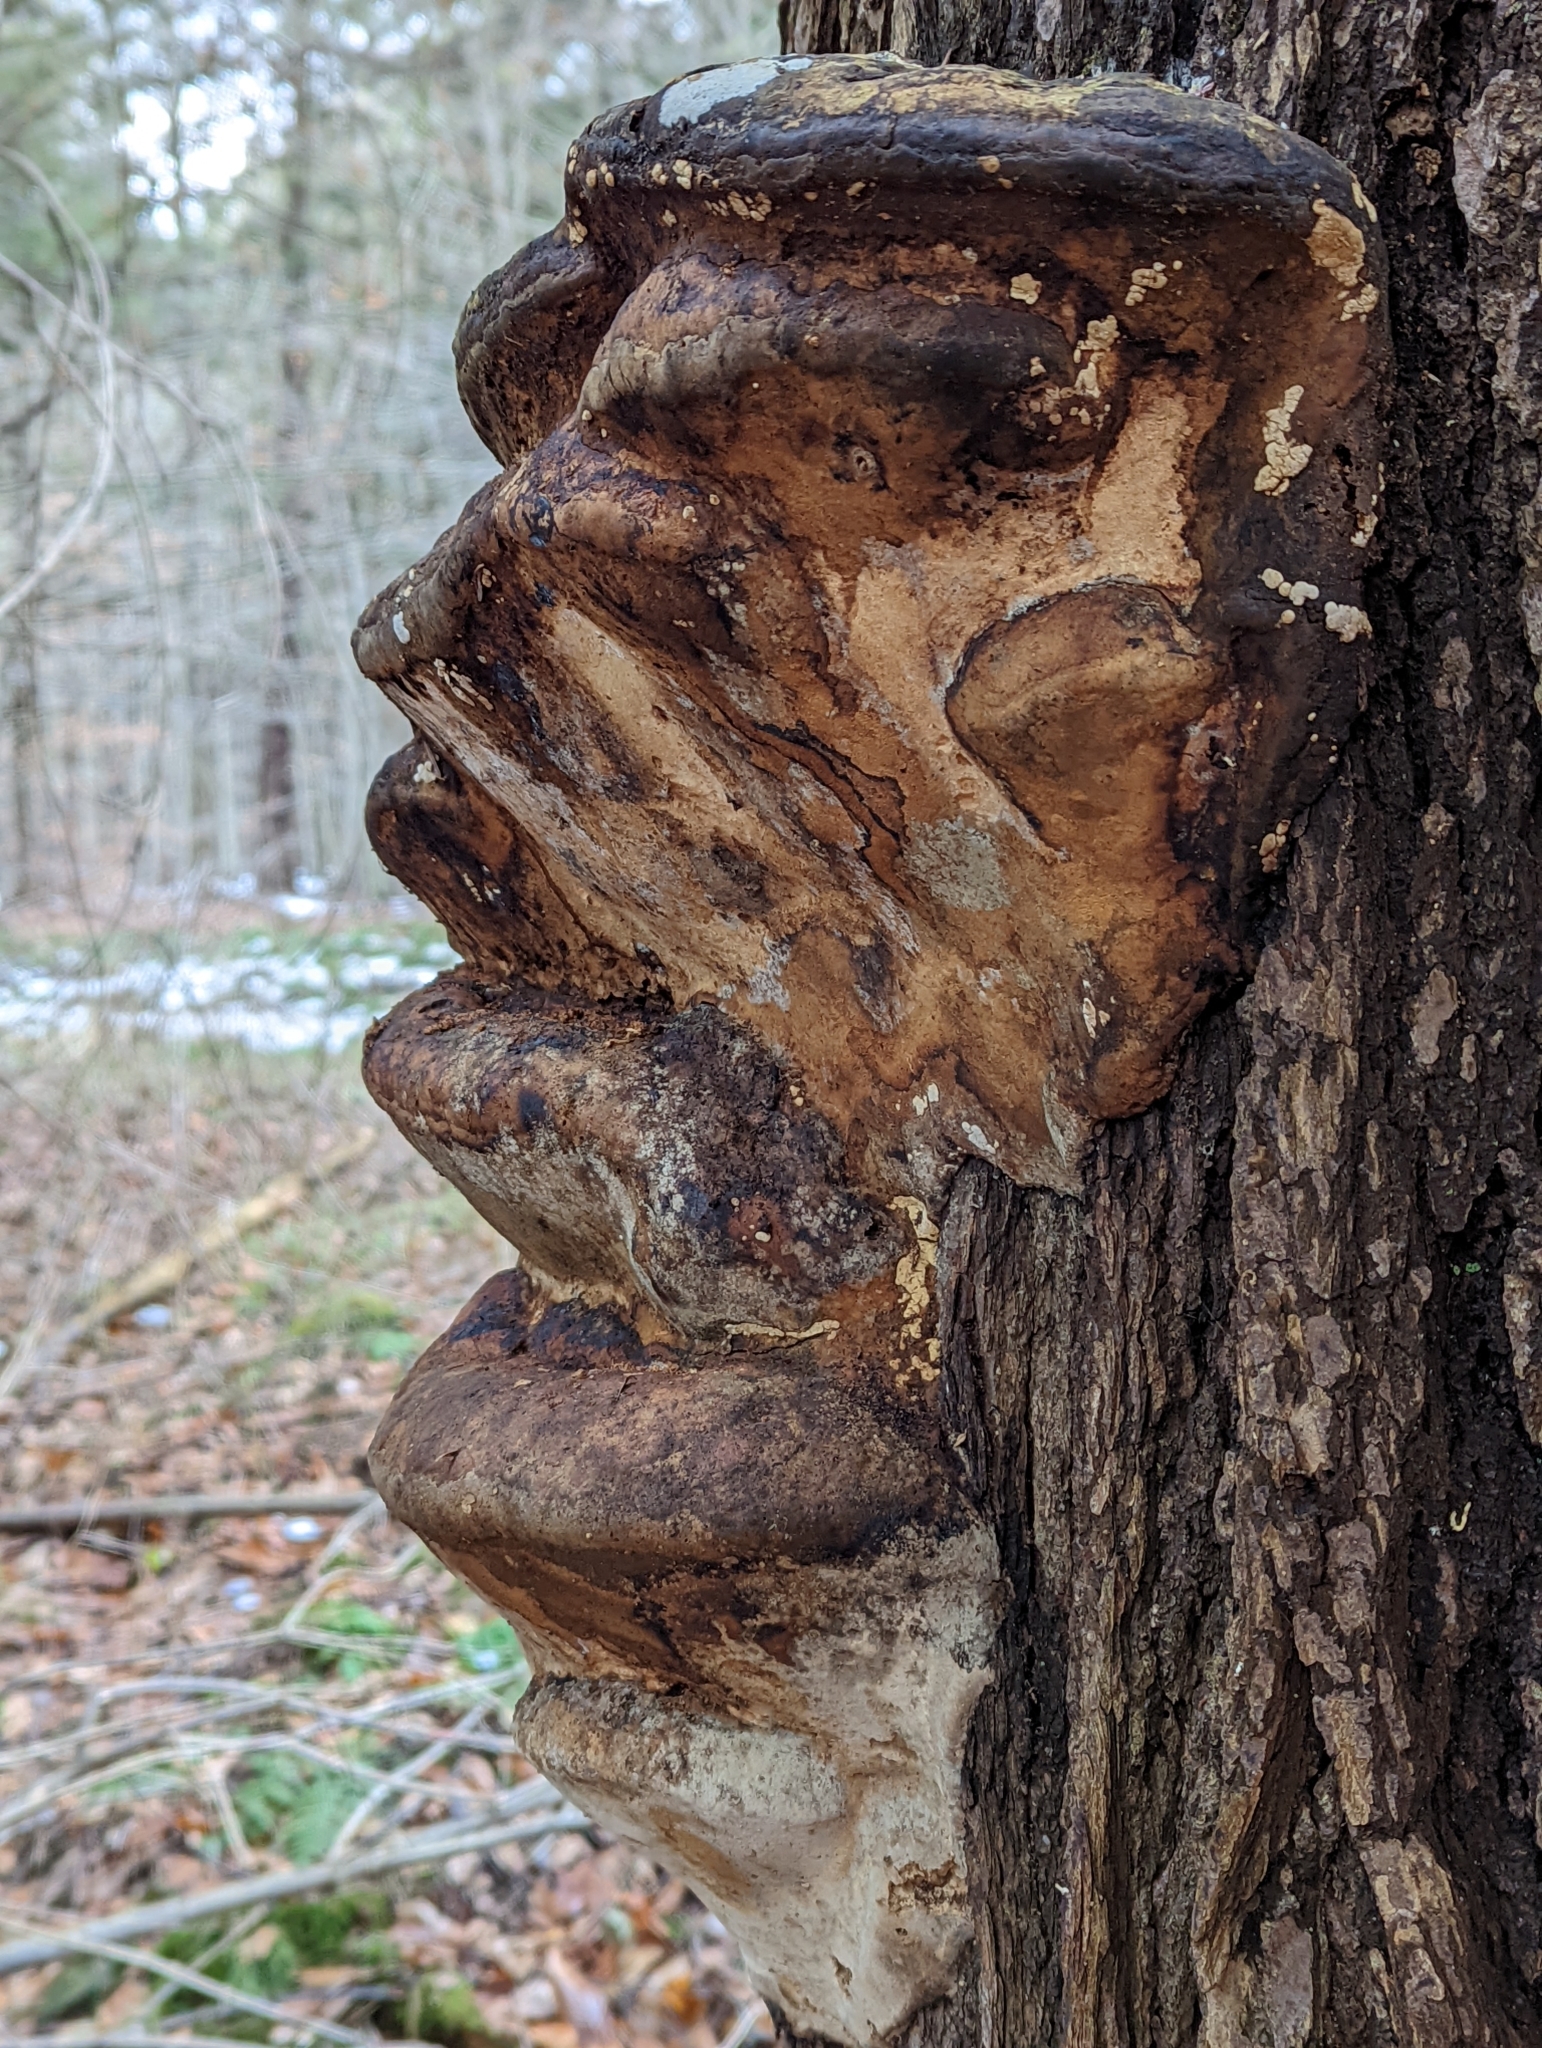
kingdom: Fungi
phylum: Basidiomycota
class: Agaricomycetes
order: Polyporales
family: Fomitopsidaceae
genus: Fomitopsis
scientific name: Fomitopsis ochracea
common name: American brown fomitopsis
